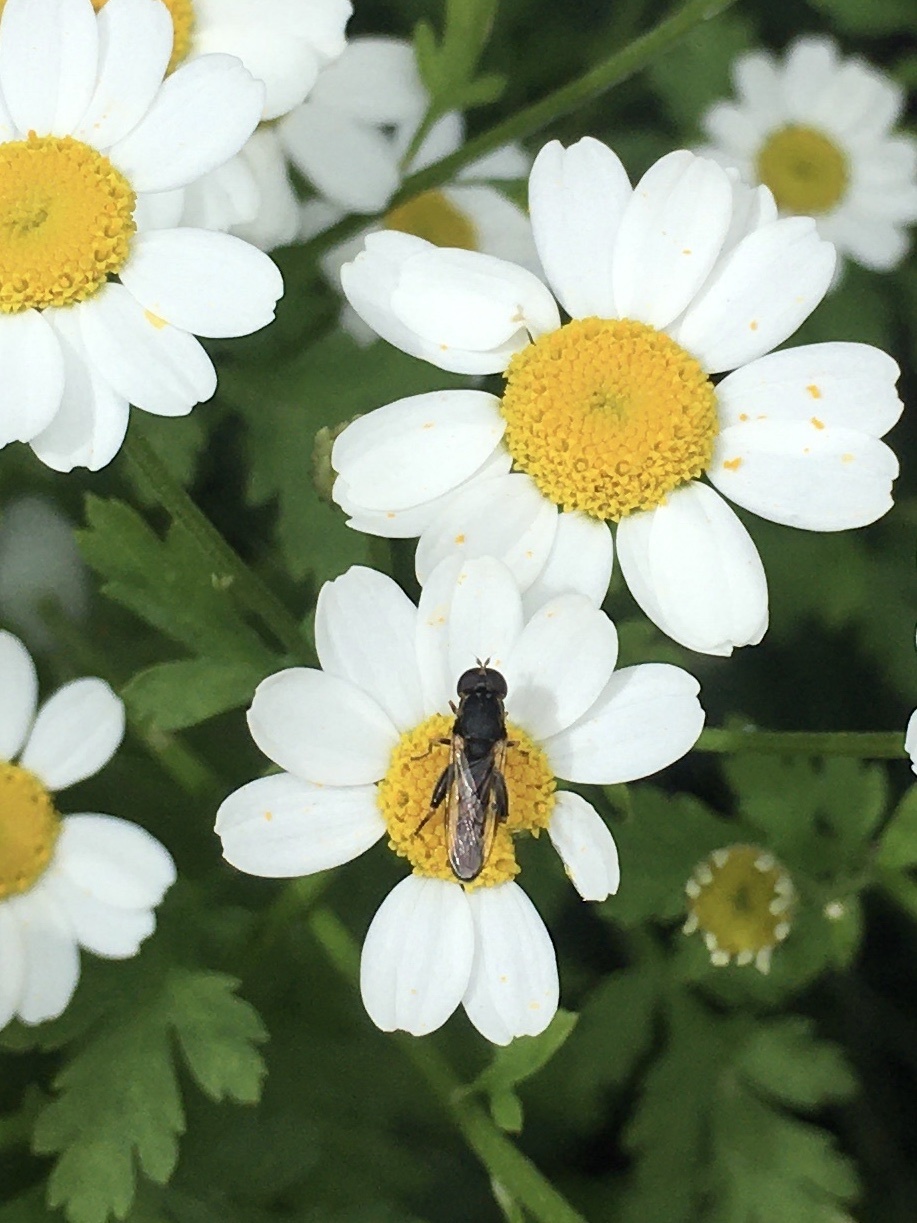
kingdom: Animalia
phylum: Arthropoda
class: Insecta
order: Diptera
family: Syrphidae
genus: Syritta
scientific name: Syritta pipiens
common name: Hover fly
